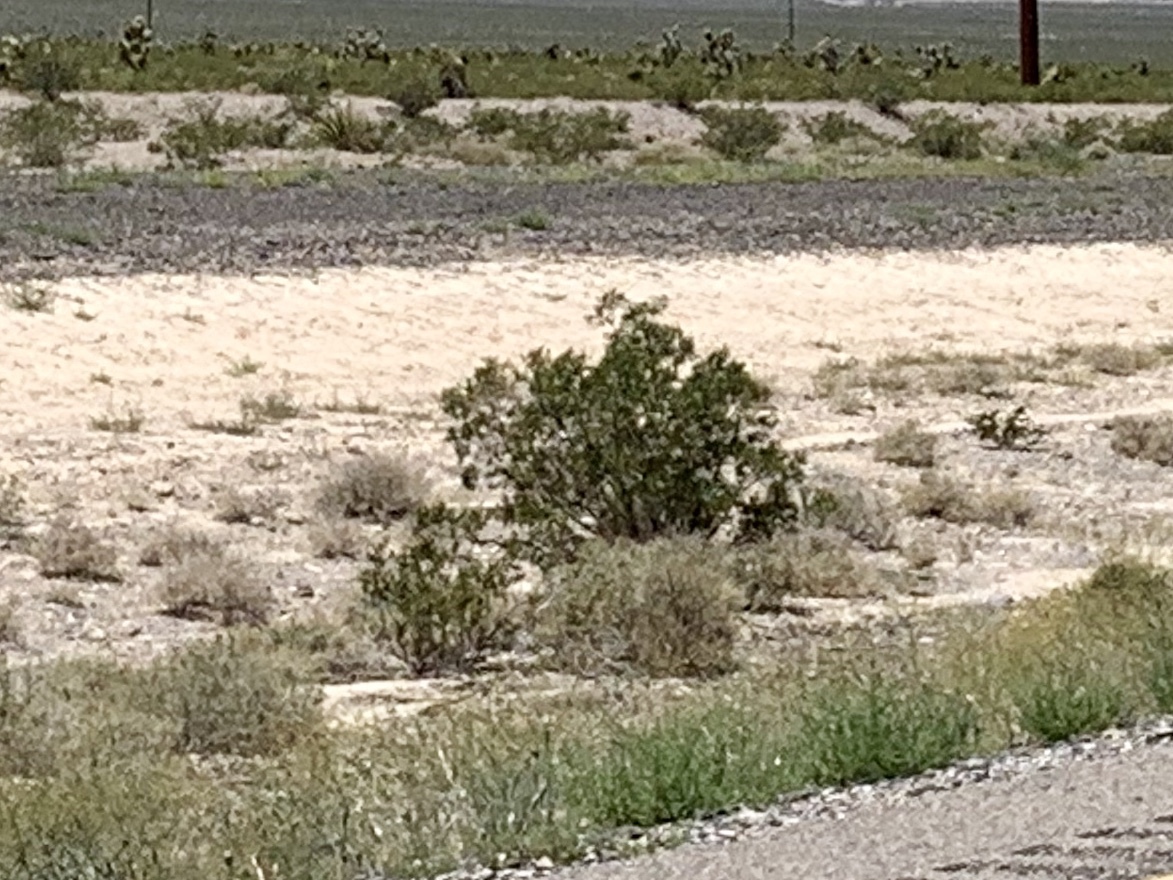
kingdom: Plantae
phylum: Tracheophyta
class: Magnoliopsida
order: Zygophyllales
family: Zygophyllaceae
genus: Larrea
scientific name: Larrea tridentata
